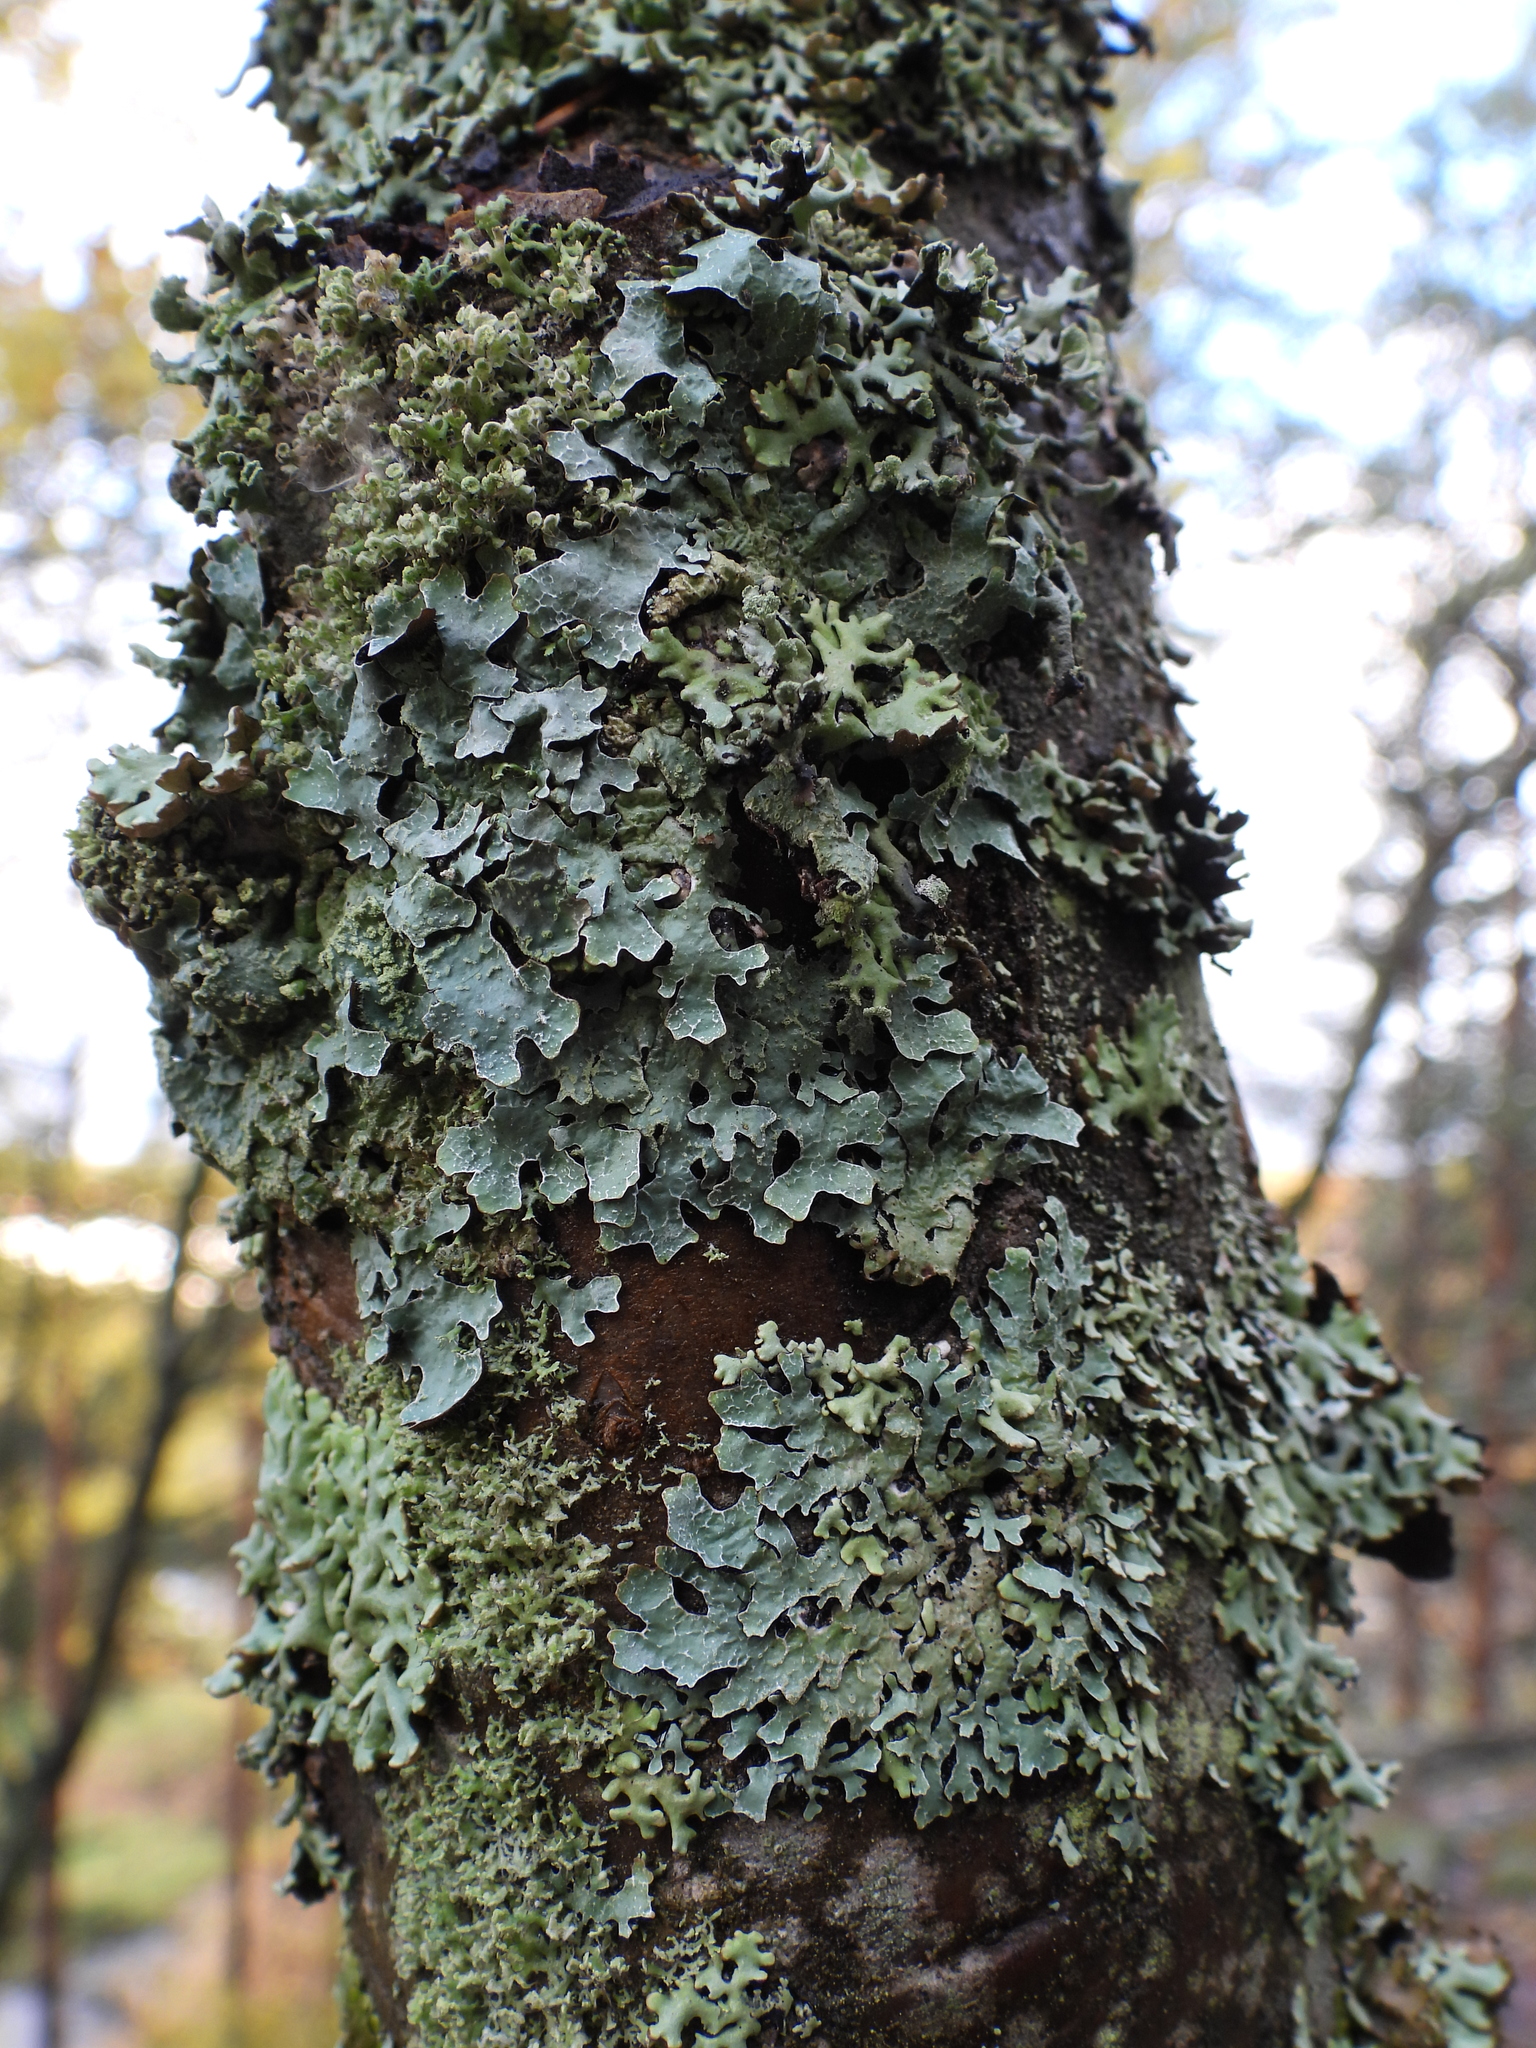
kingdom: Fungi
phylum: Ascomycota
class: Lecanoromycetes
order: Lecanorales
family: Parmeliaceae
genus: Parmelia
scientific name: Parmelia sulcata
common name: Netted shield lichen
